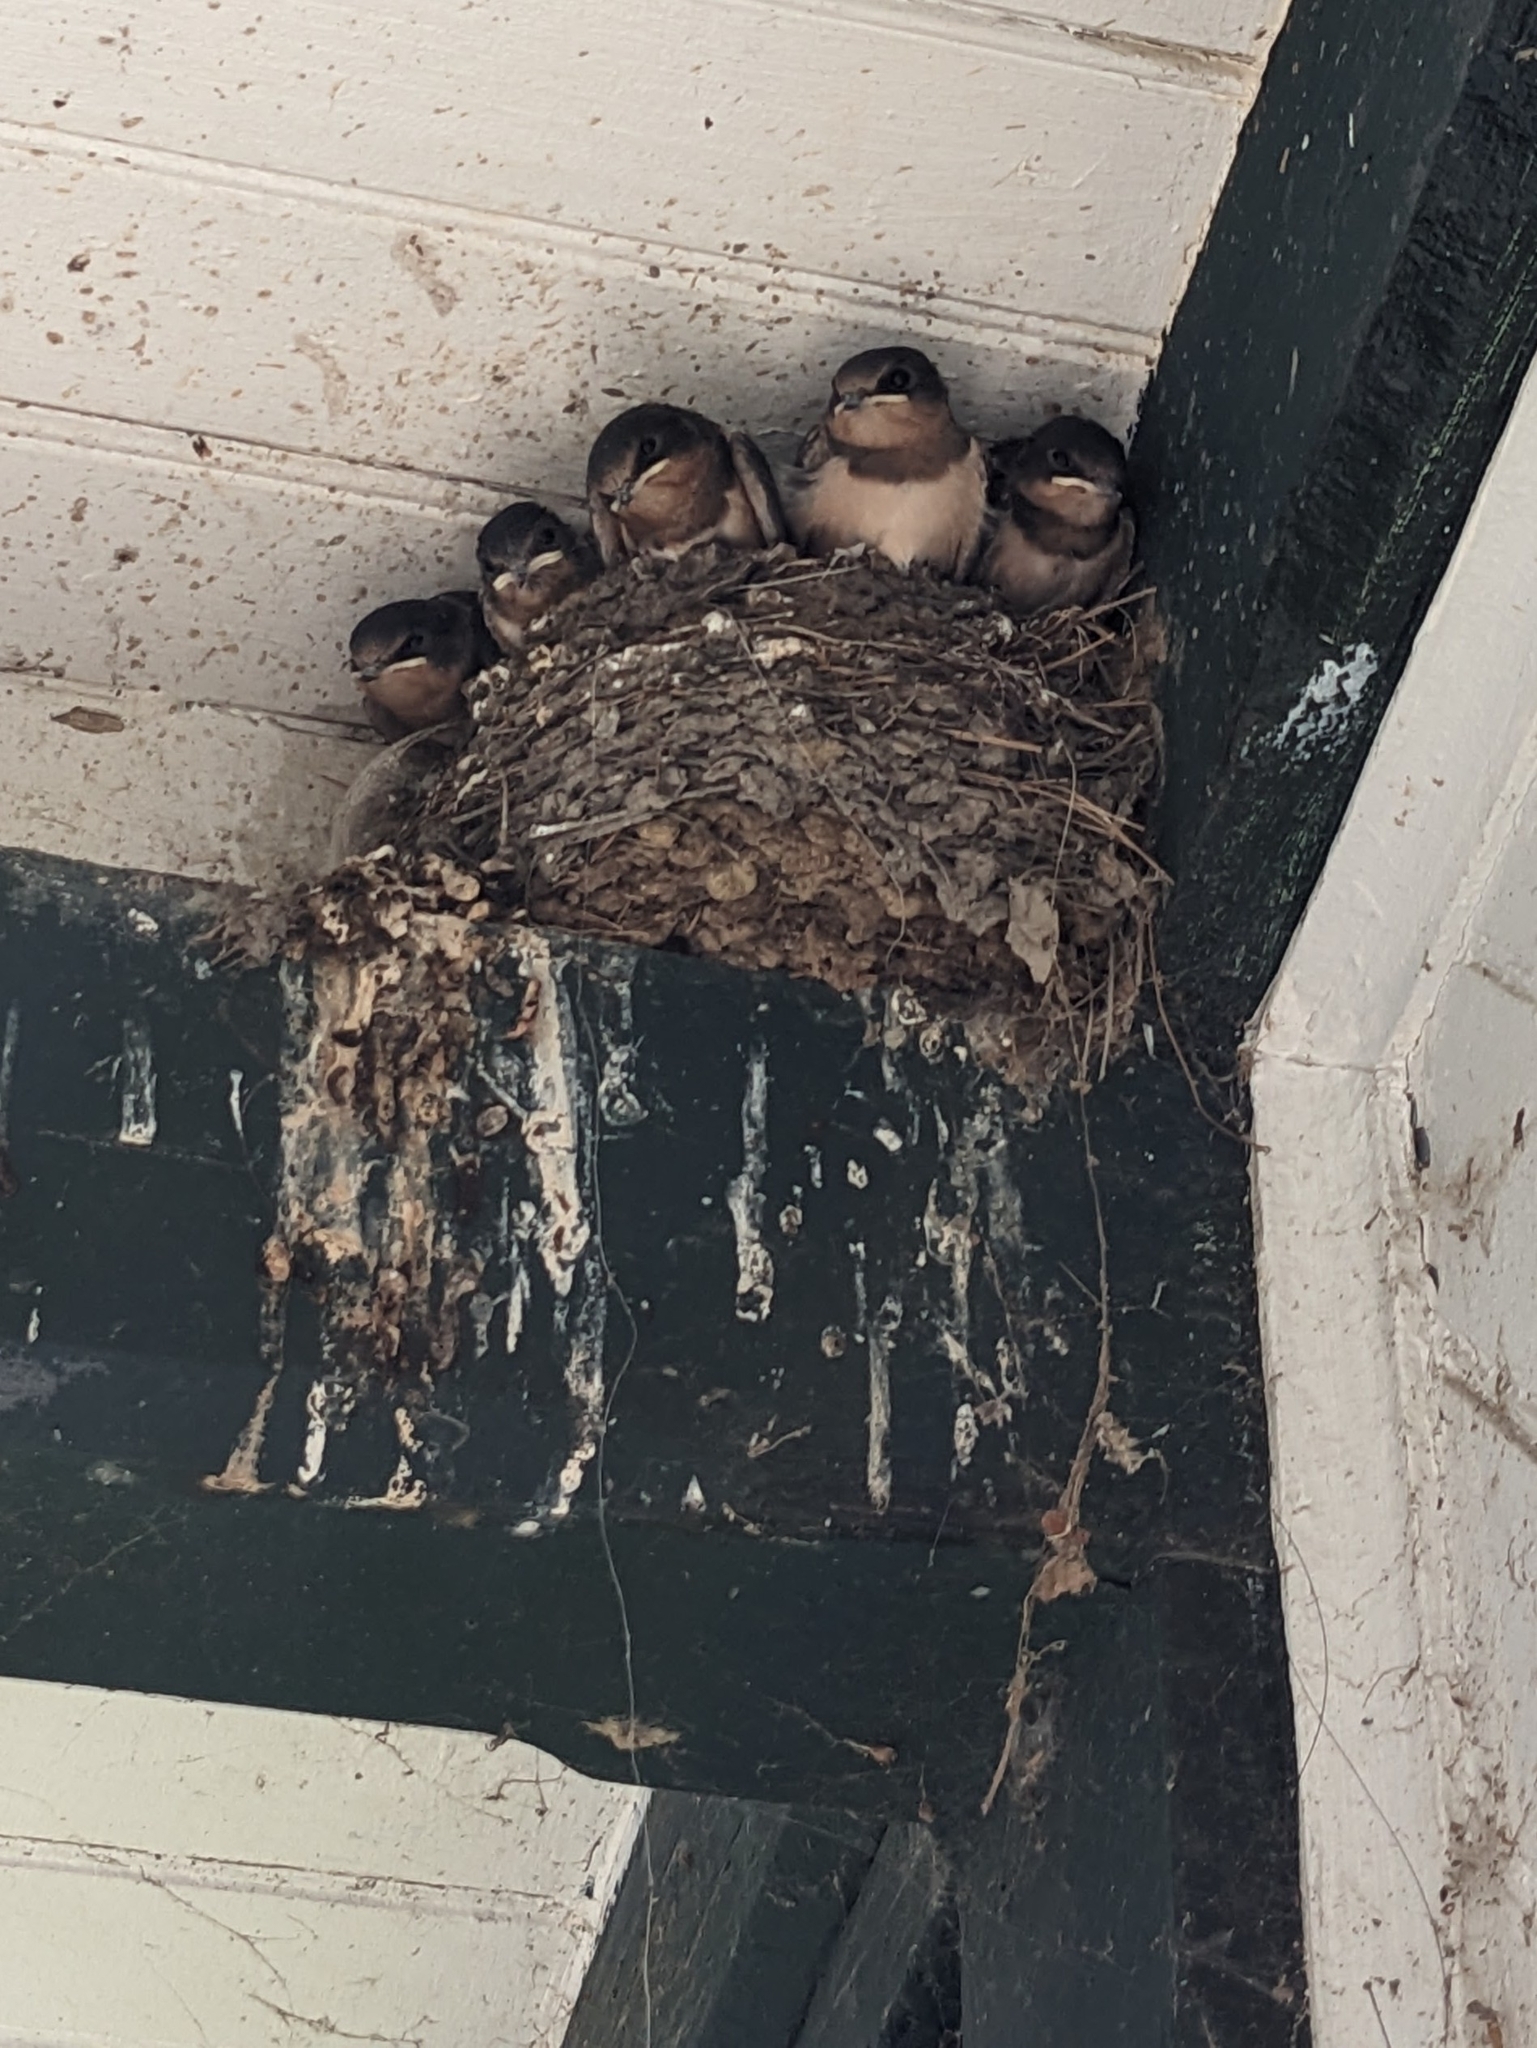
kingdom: Animalia
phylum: Chordata
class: Aves
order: Passeriformes
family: Hirundinidae
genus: Hirundo
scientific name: Hirundo rustica
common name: Barn swallow
